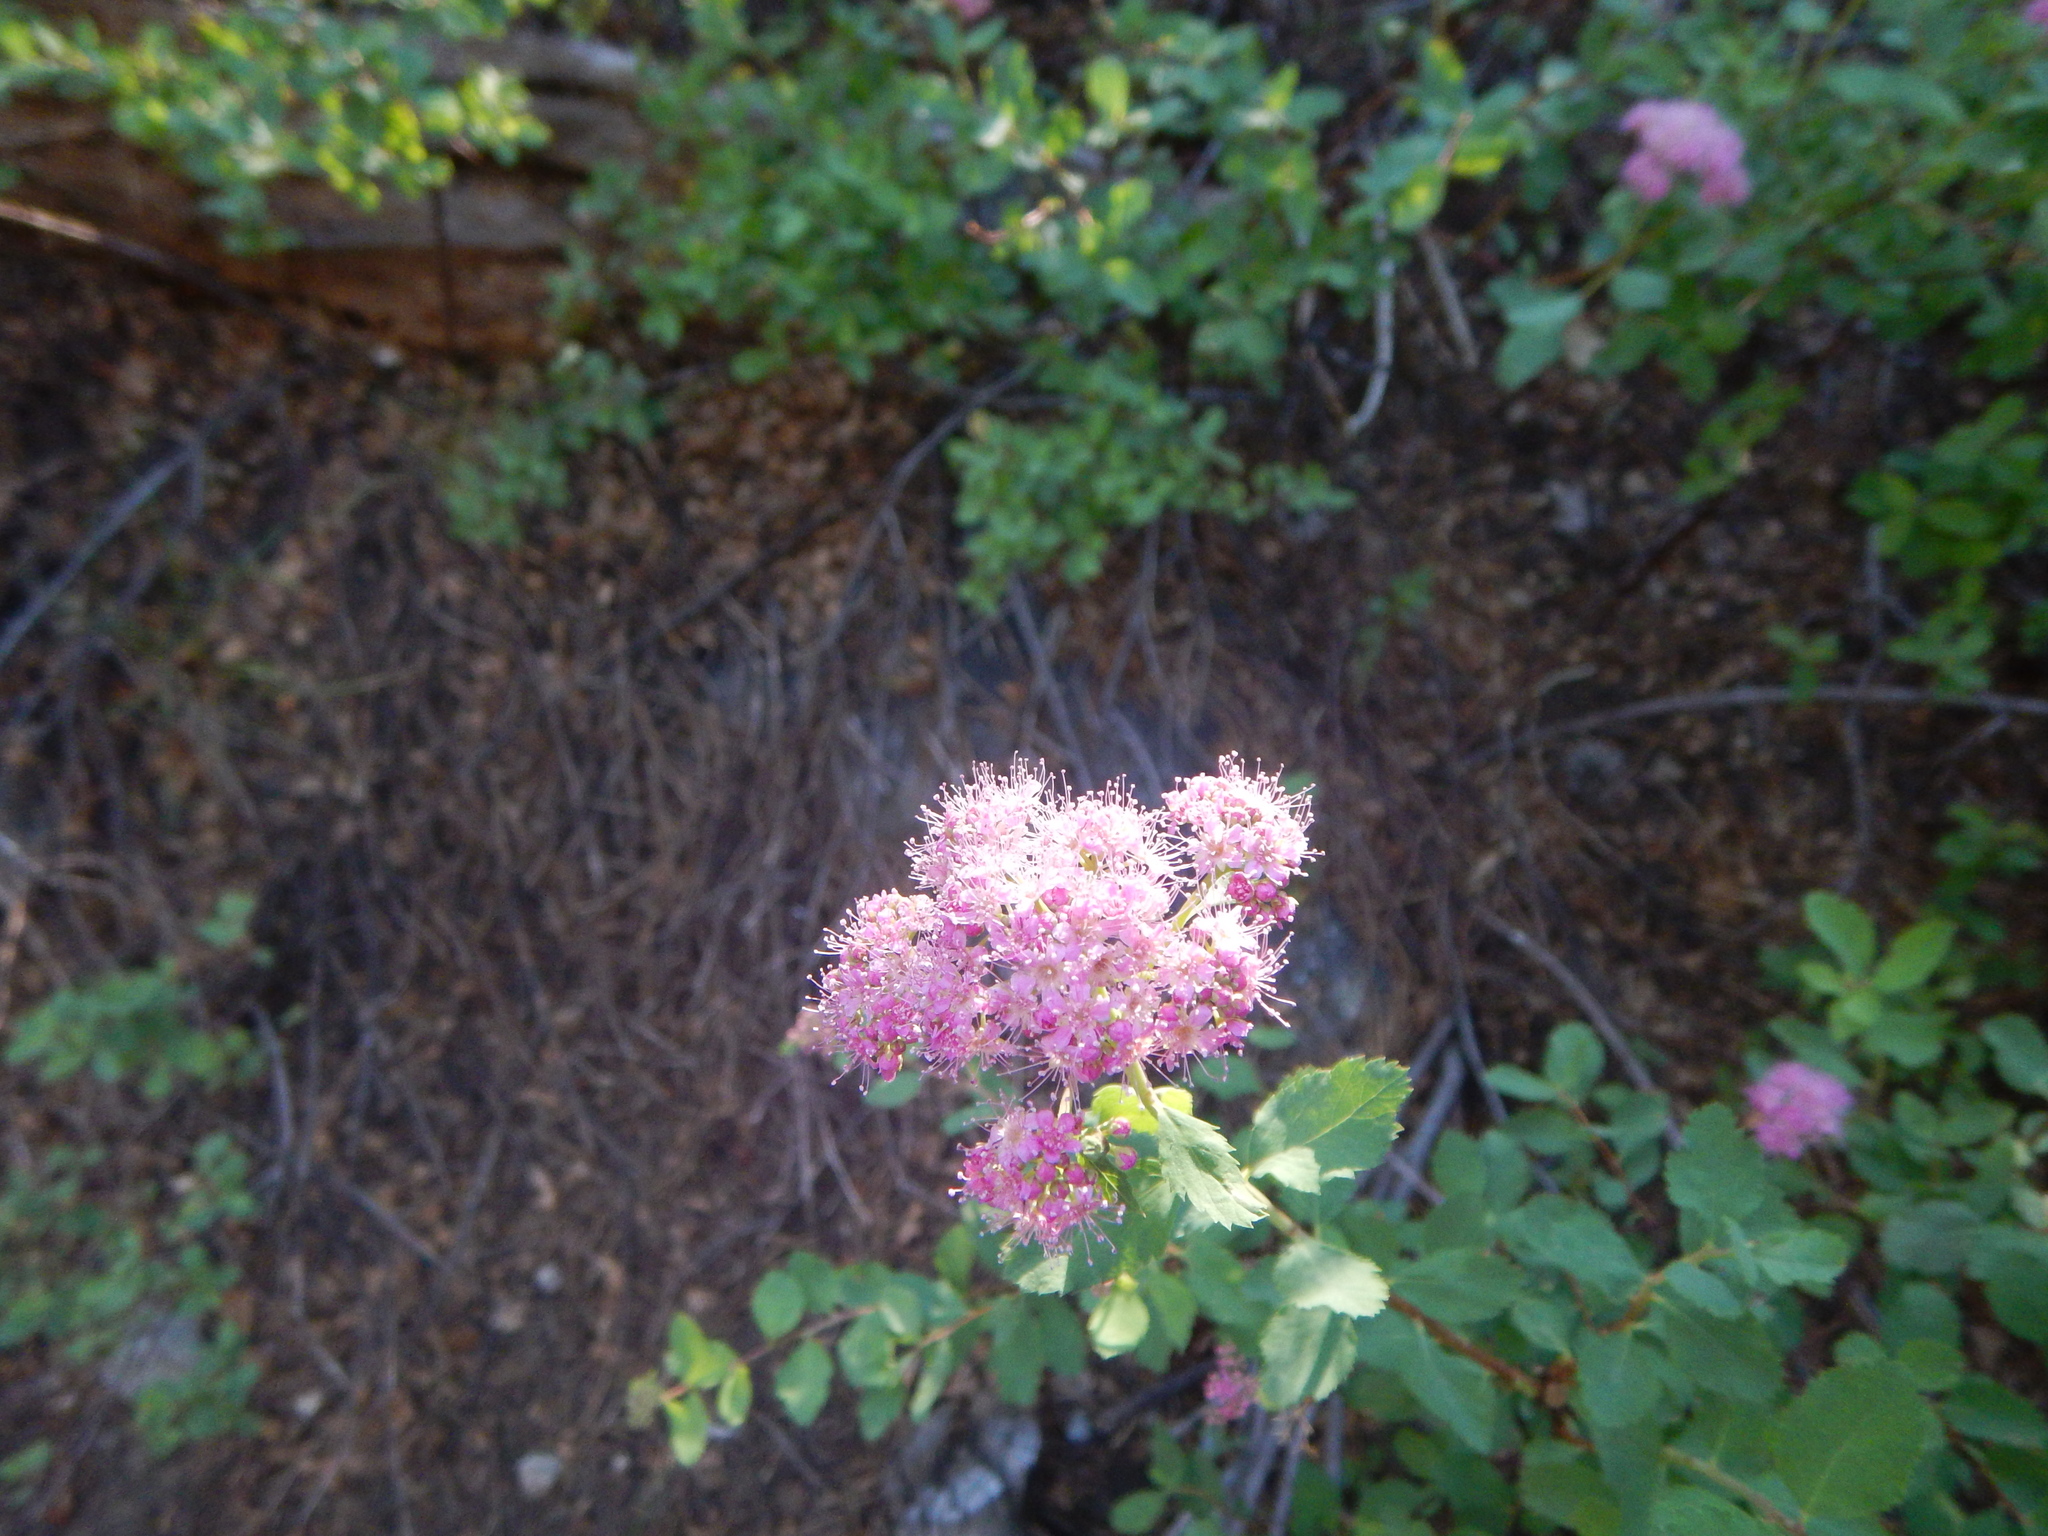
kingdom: Plantae
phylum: Tracheophyta
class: Magnoliopsida
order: Rosales
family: Rosaceae
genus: Spiraea
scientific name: Spiraea splendens
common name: Subalpine meadowsweet
